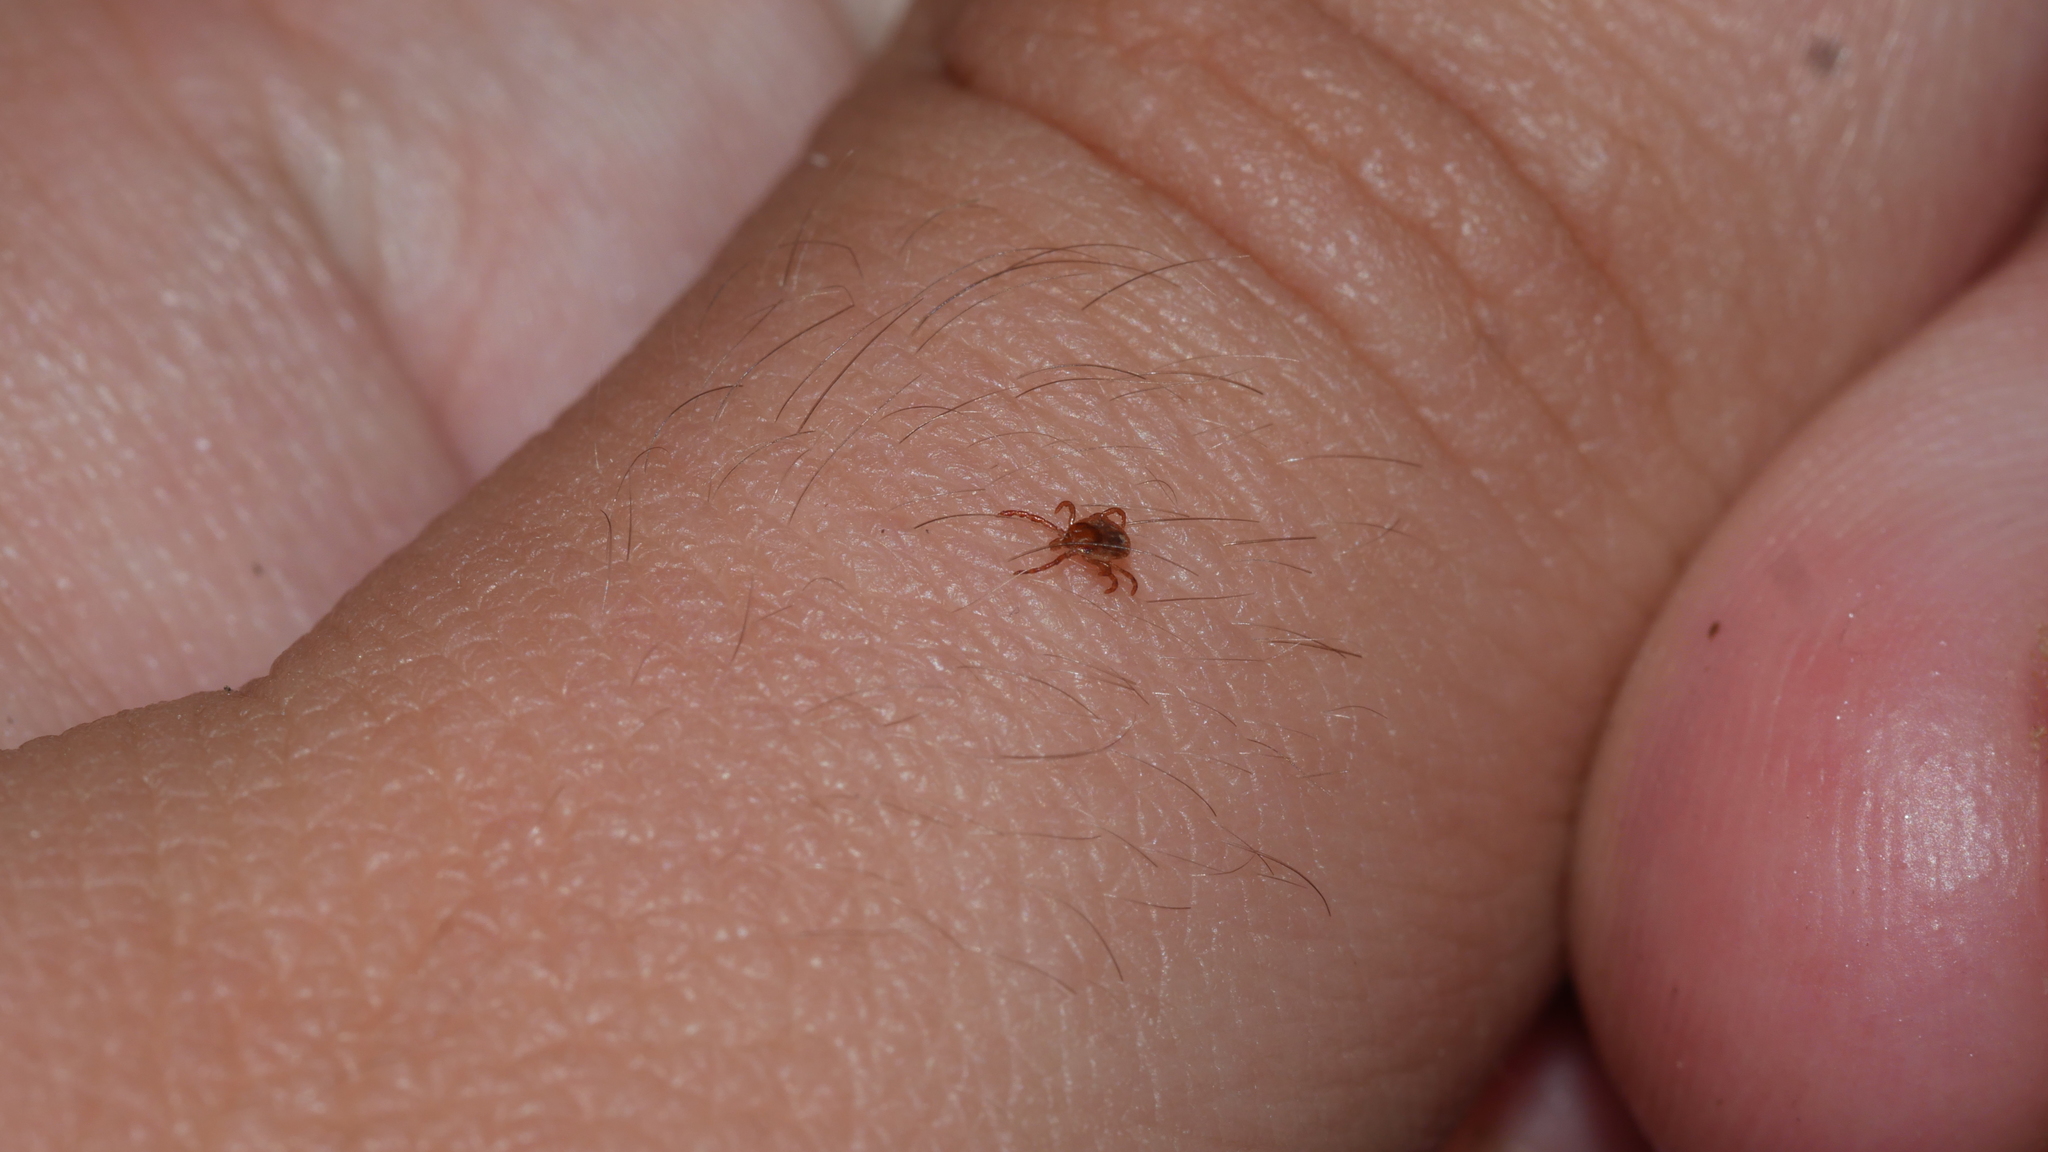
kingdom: Animalia
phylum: Arthropoda
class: Arachnida
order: Ixodida
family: Ixodidae
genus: Amblyomma
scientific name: Amblyomma americanum
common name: Lone star tick
